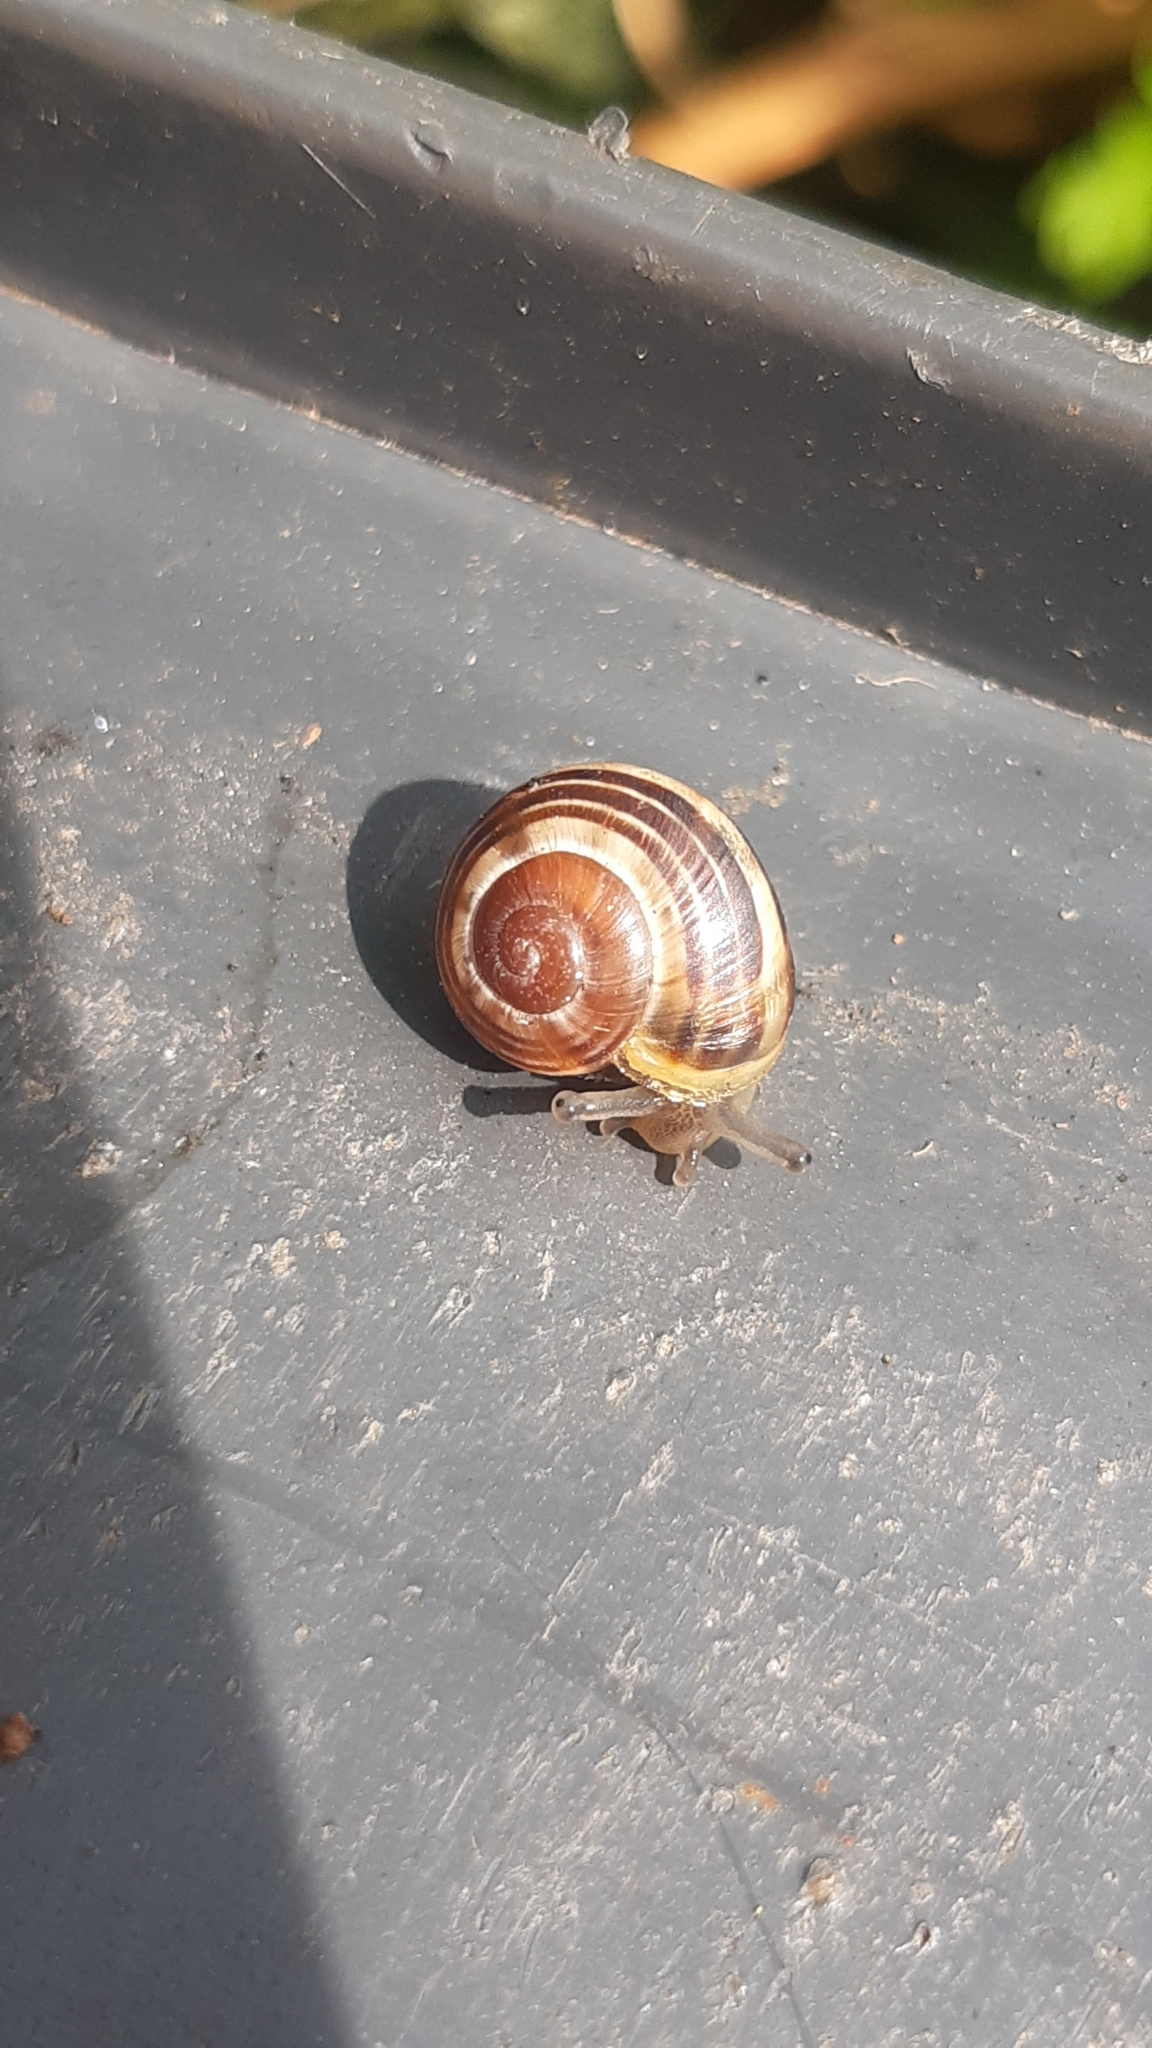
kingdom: Animalia
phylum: Mollusca
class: Gastropoda
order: Stylommatophora
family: Helicidae
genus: Cepaea
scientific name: Cepaea
